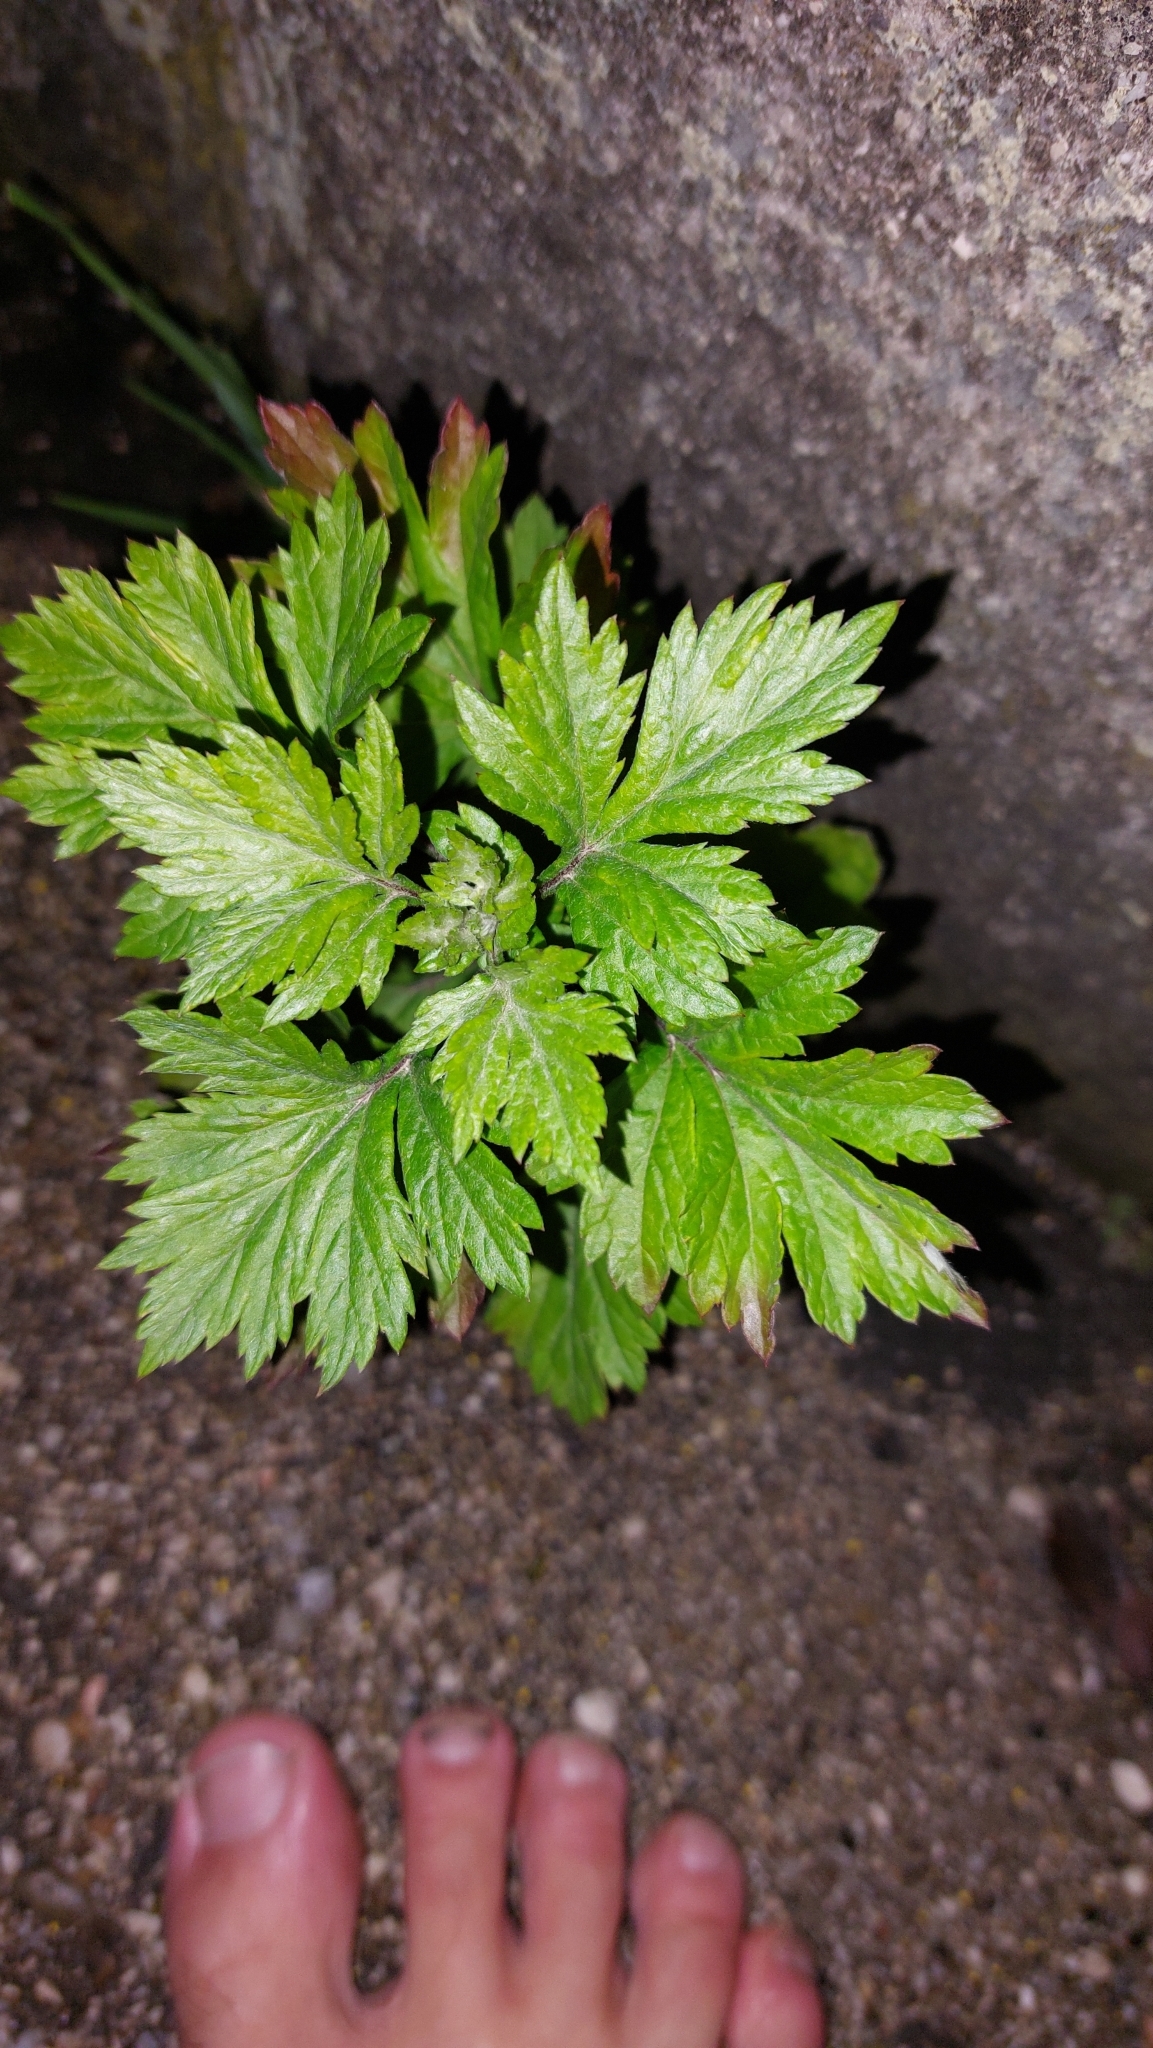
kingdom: Plantae
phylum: Tracheophyta
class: Magnoliopsida
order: Asterales
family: Asteraceae
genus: Artemisia
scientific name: Artemisia vulgaris
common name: Mugwort
